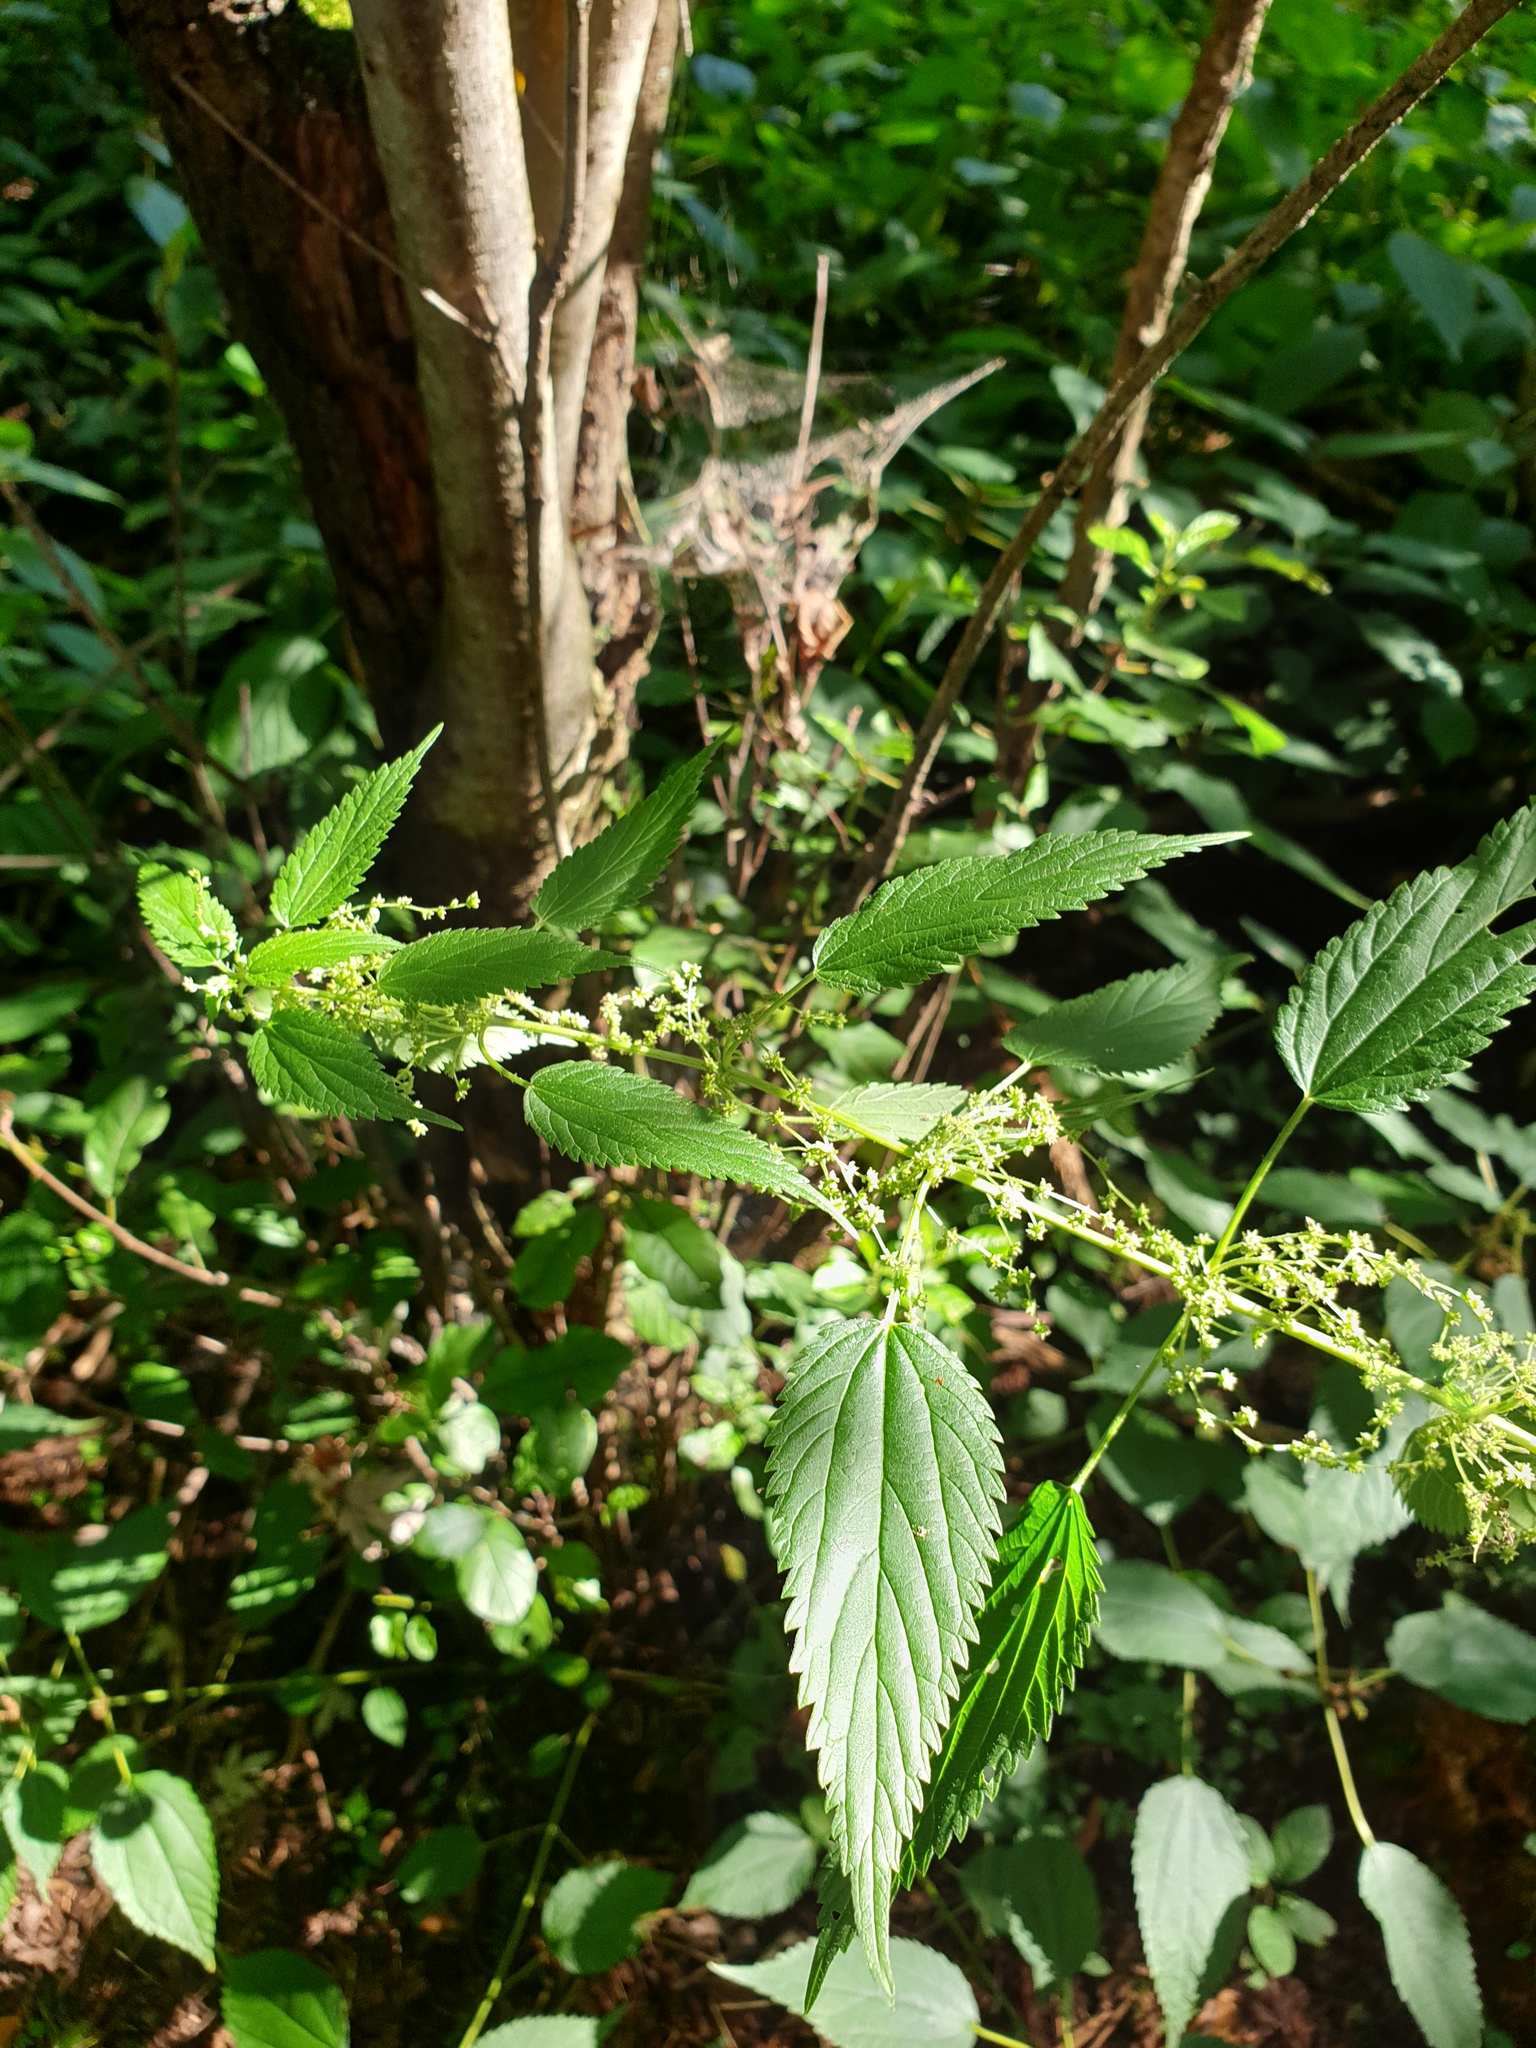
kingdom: Plantae
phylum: Tracheophyta
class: Magnoliopsida
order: Rosales
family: Urticaceae
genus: Urtica
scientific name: Urtica gracilis
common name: Slender stinging nettle
